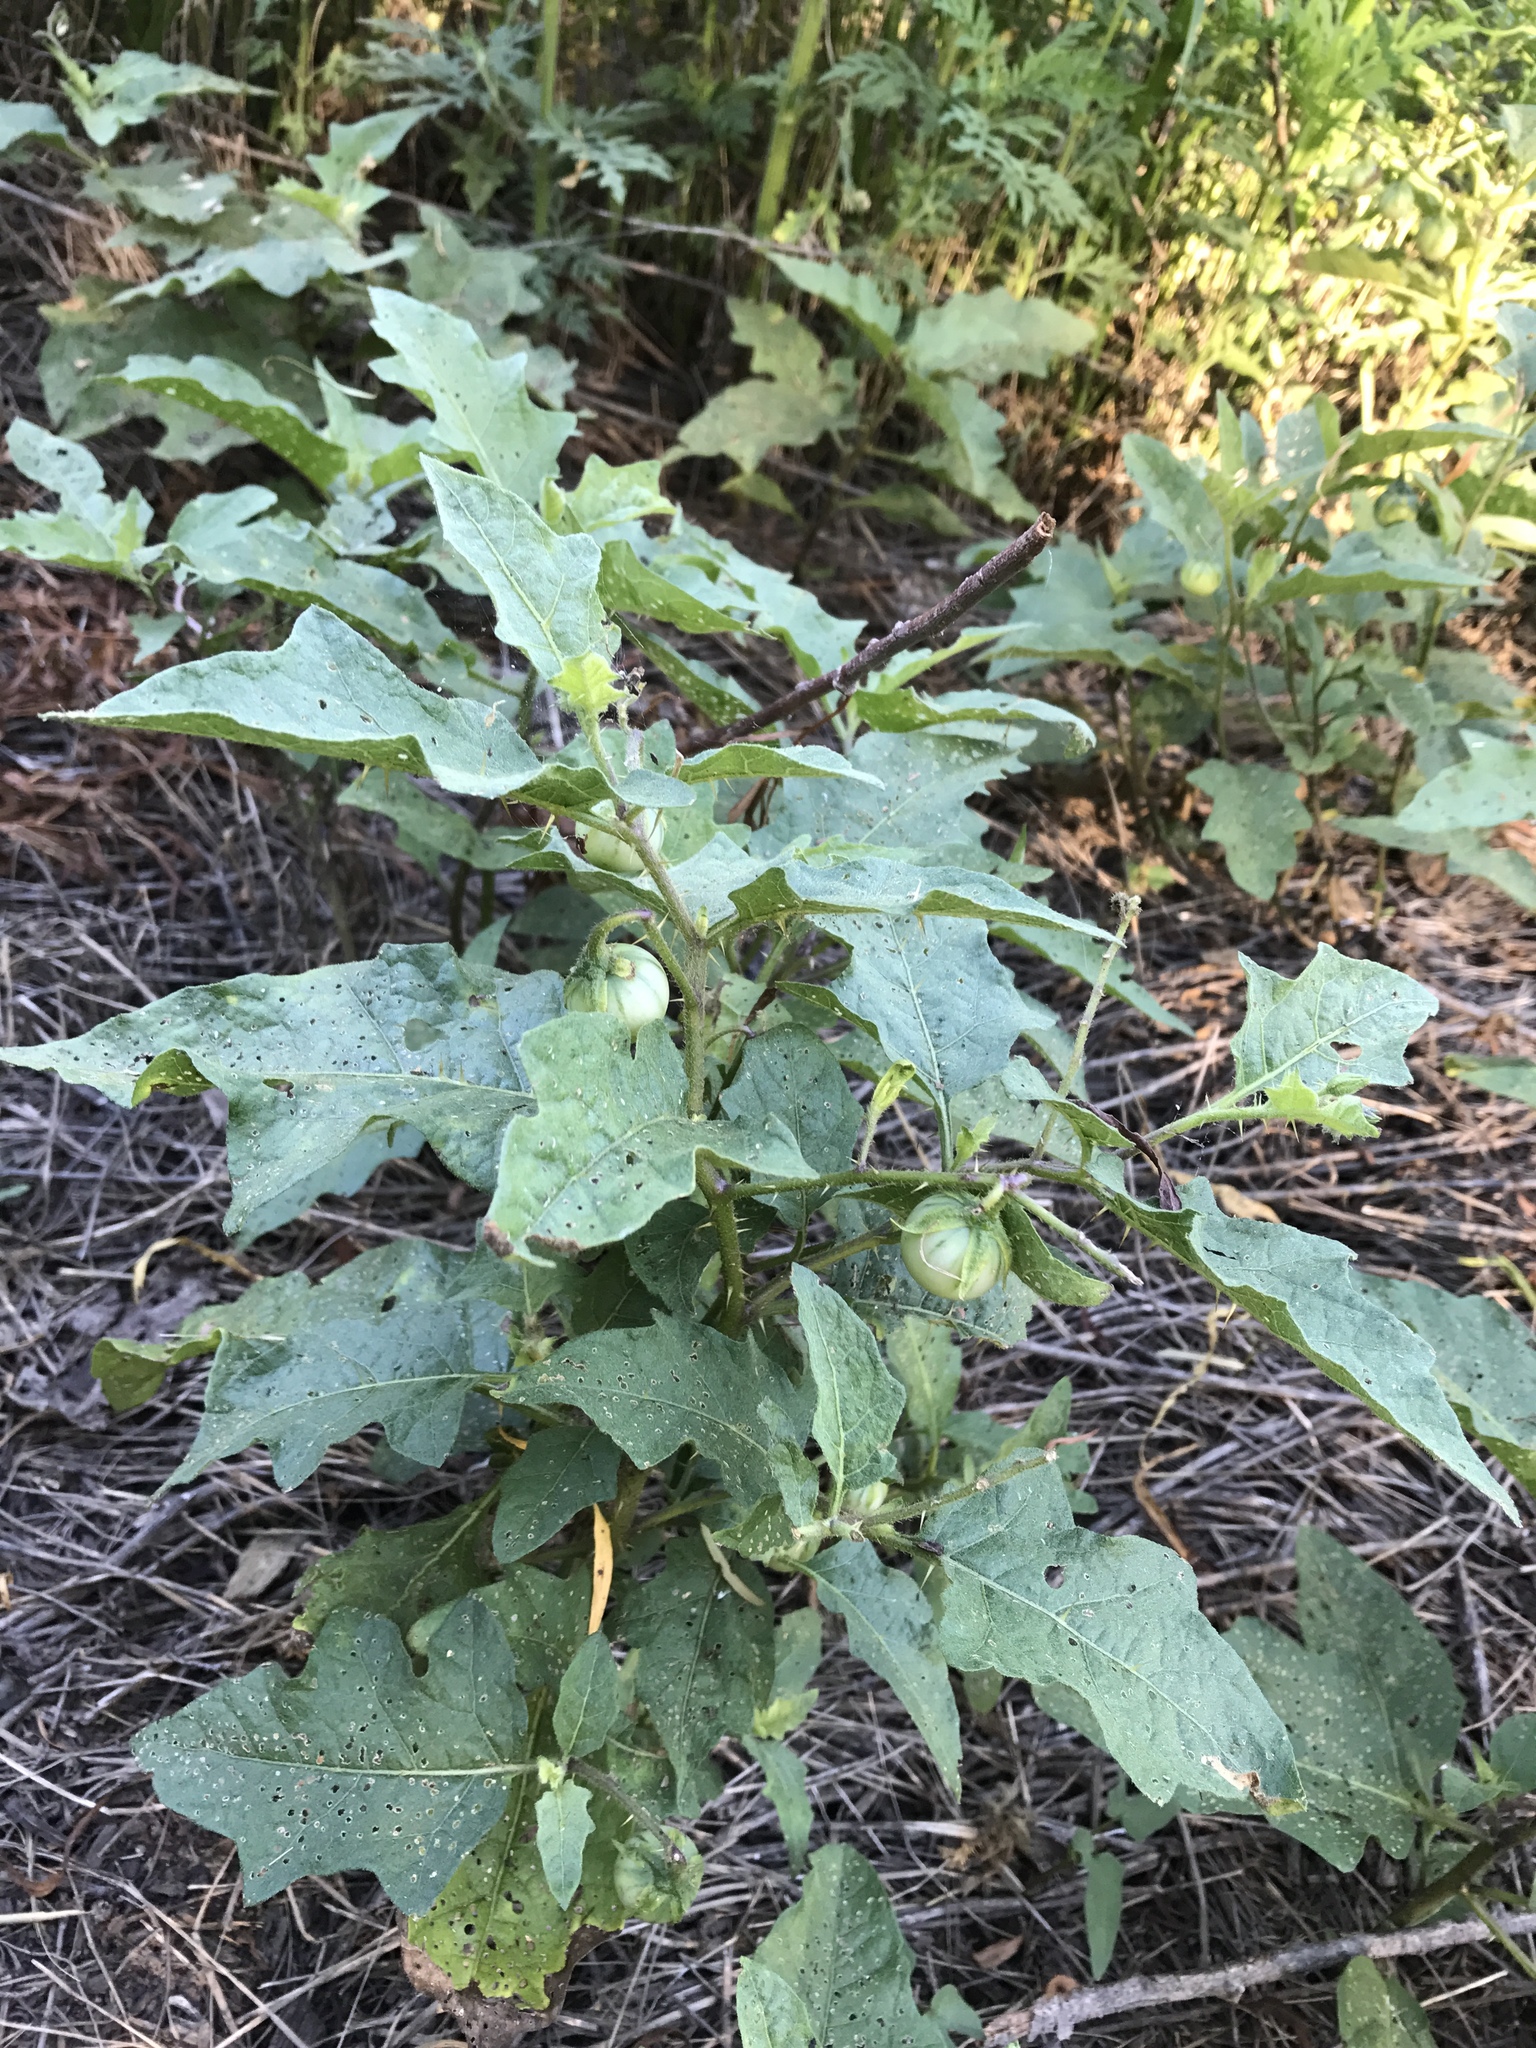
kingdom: Plantae
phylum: Tracheophyta
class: Magnoliopsida
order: Solanales
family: Solanaceae
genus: Solanum
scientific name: Solanum carolinense
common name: Horse-nettle
